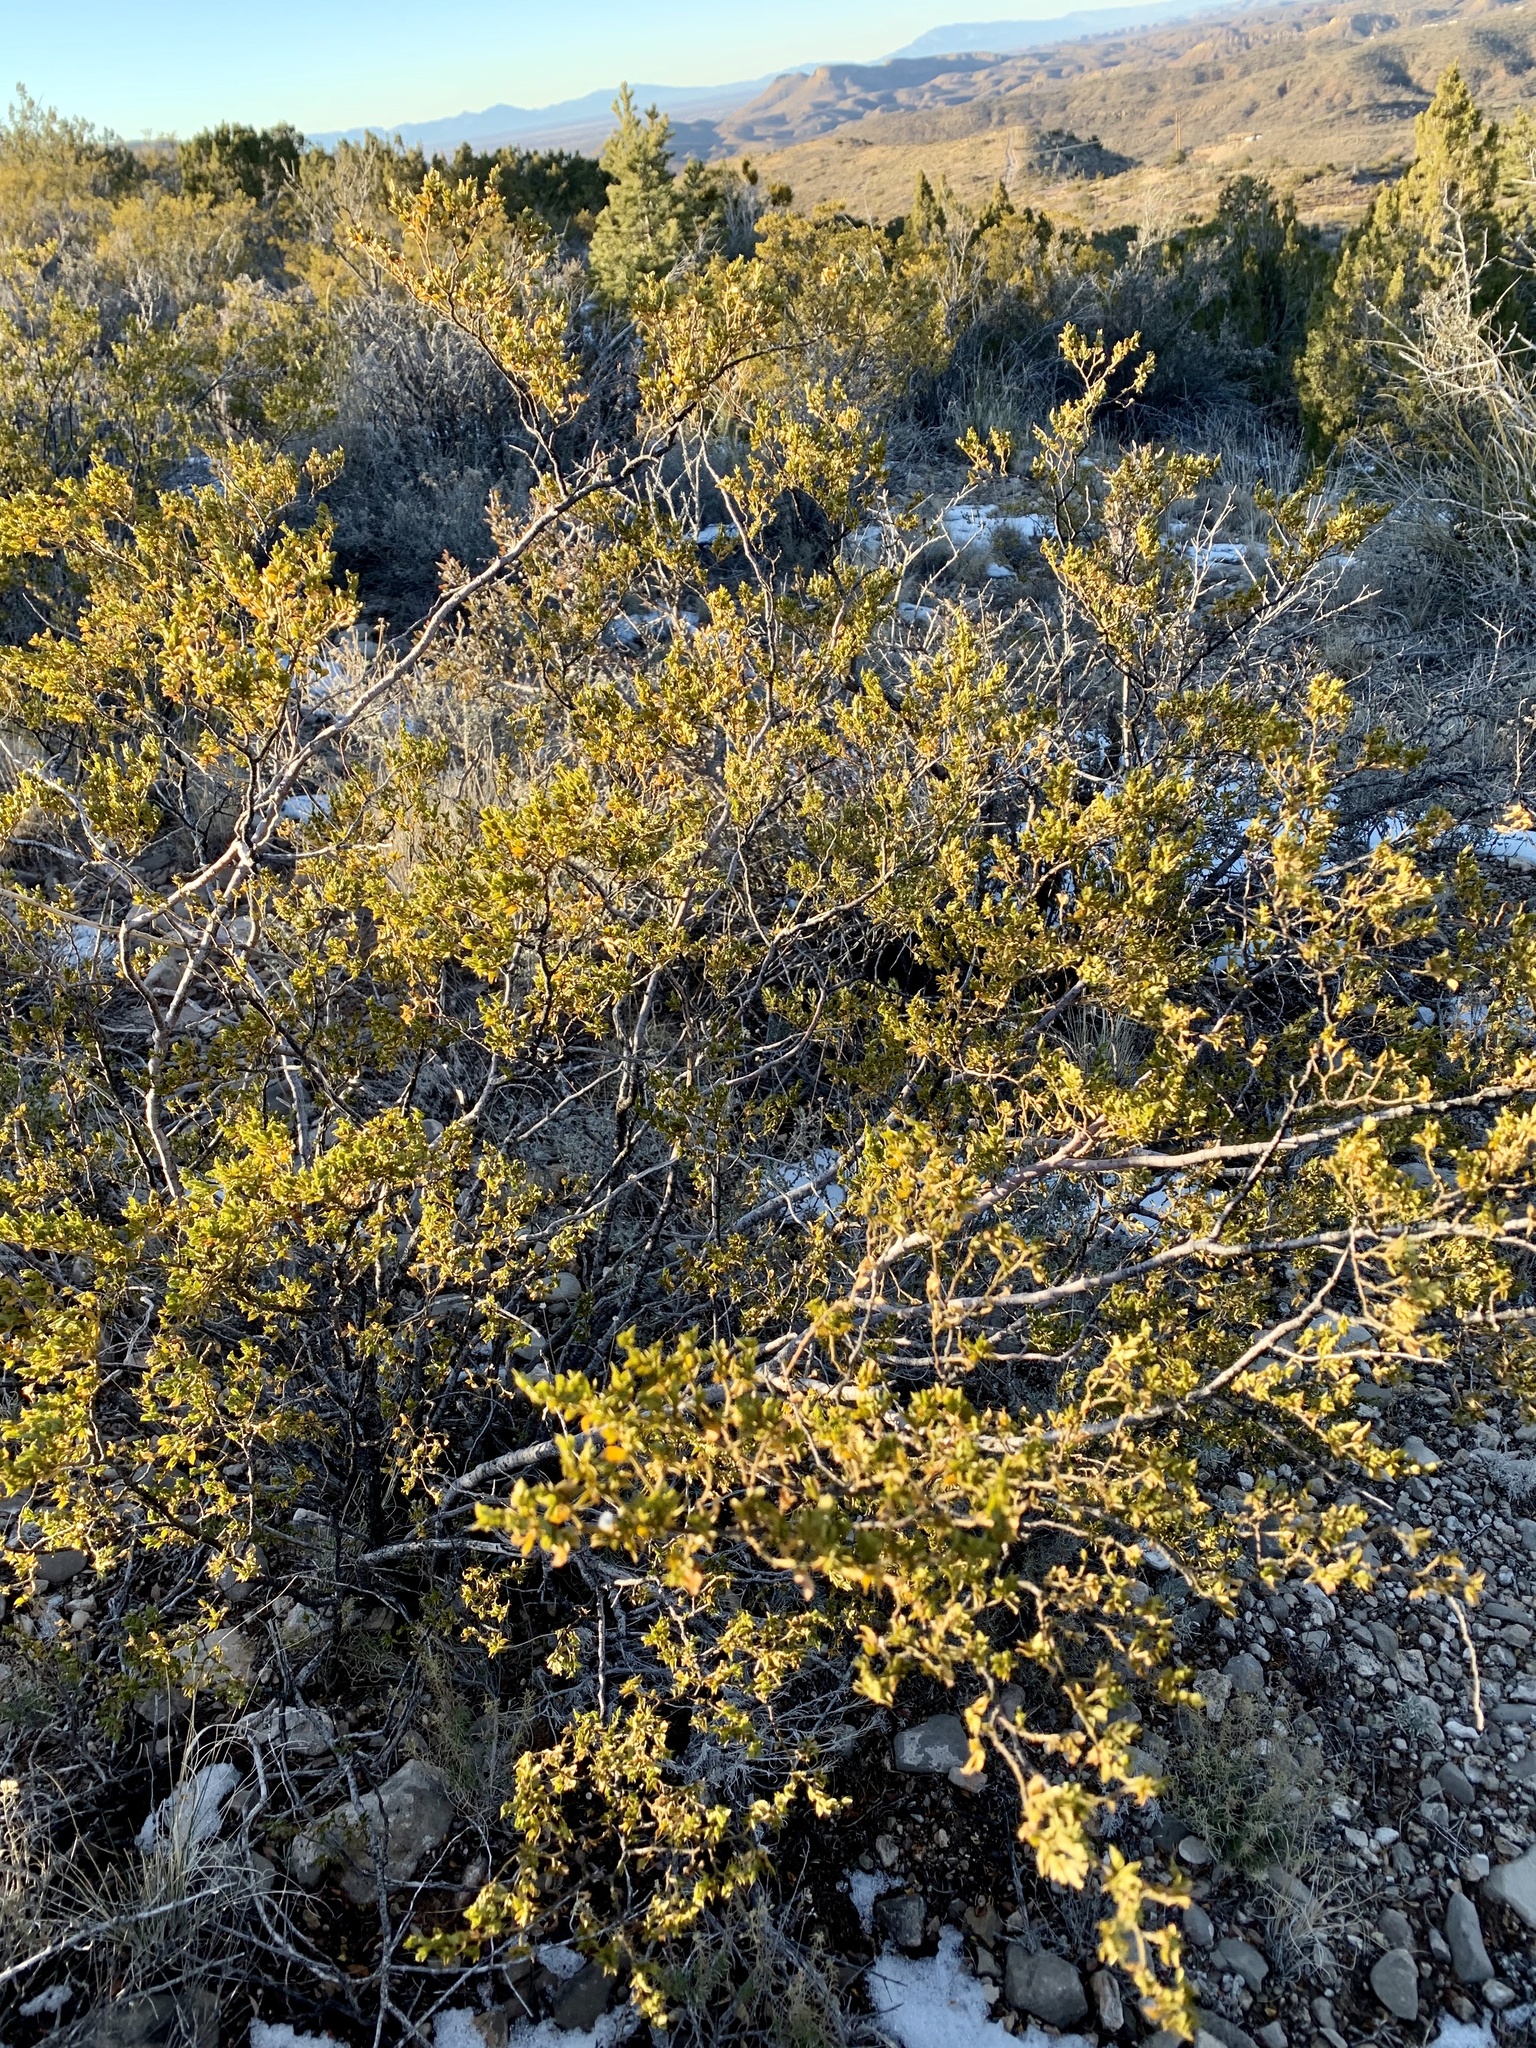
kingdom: Plantae
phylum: Tracheophyta
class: Magnoliopsida
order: Zygophyllales
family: Zygophyllaceae
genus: Larrea
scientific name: Larrea tridentata
